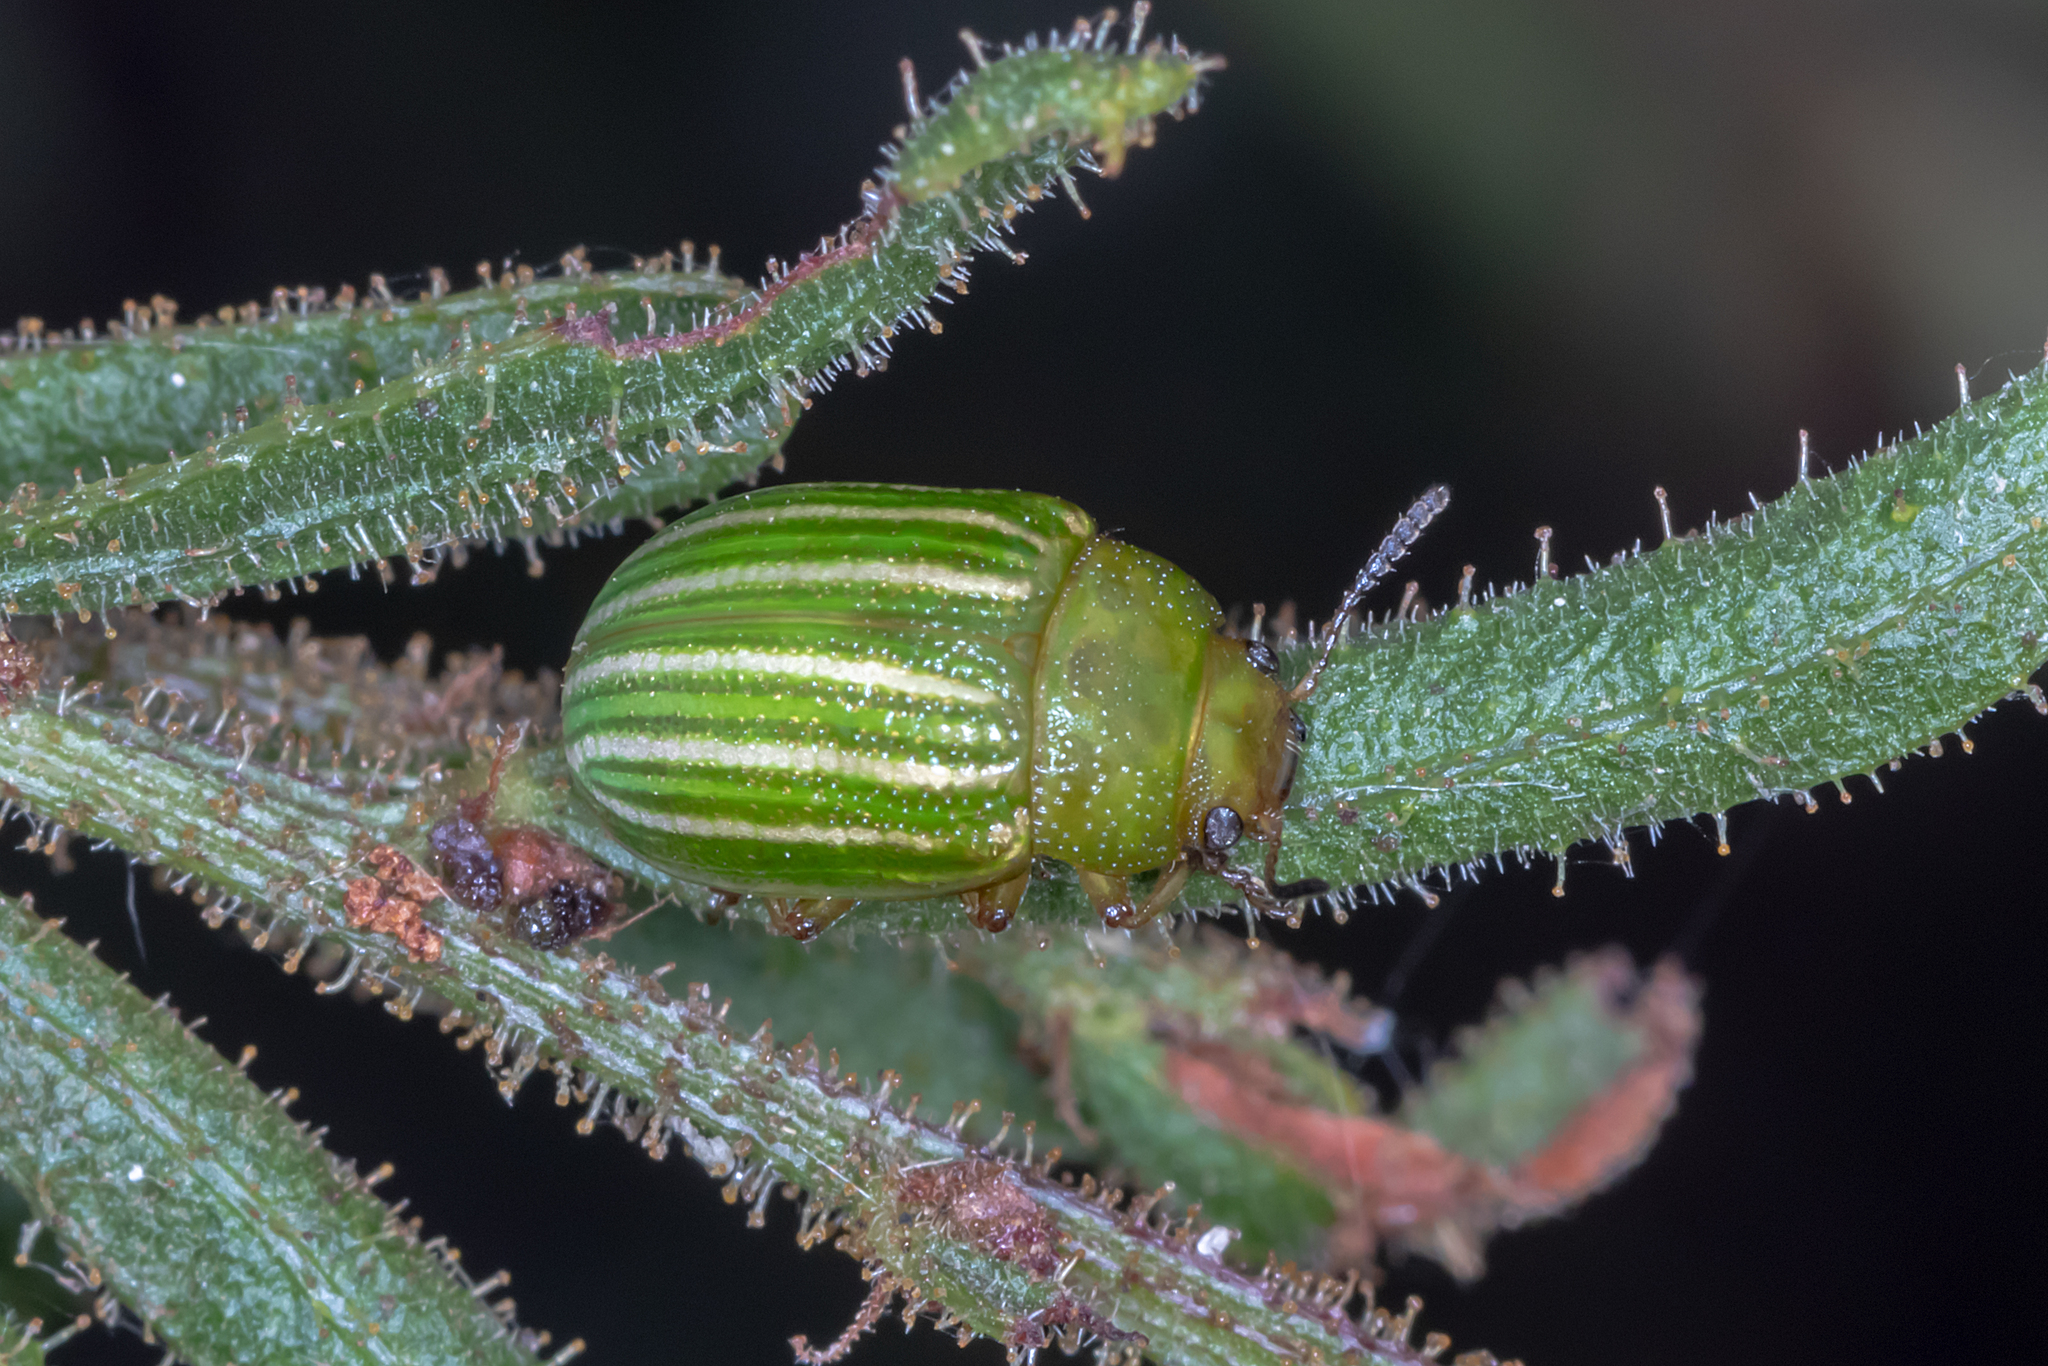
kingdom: Animalia
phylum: Arthropoda
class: Insecta
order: Coleoptera
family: Chrysomelidae
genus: Calomela
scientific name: Calomela
